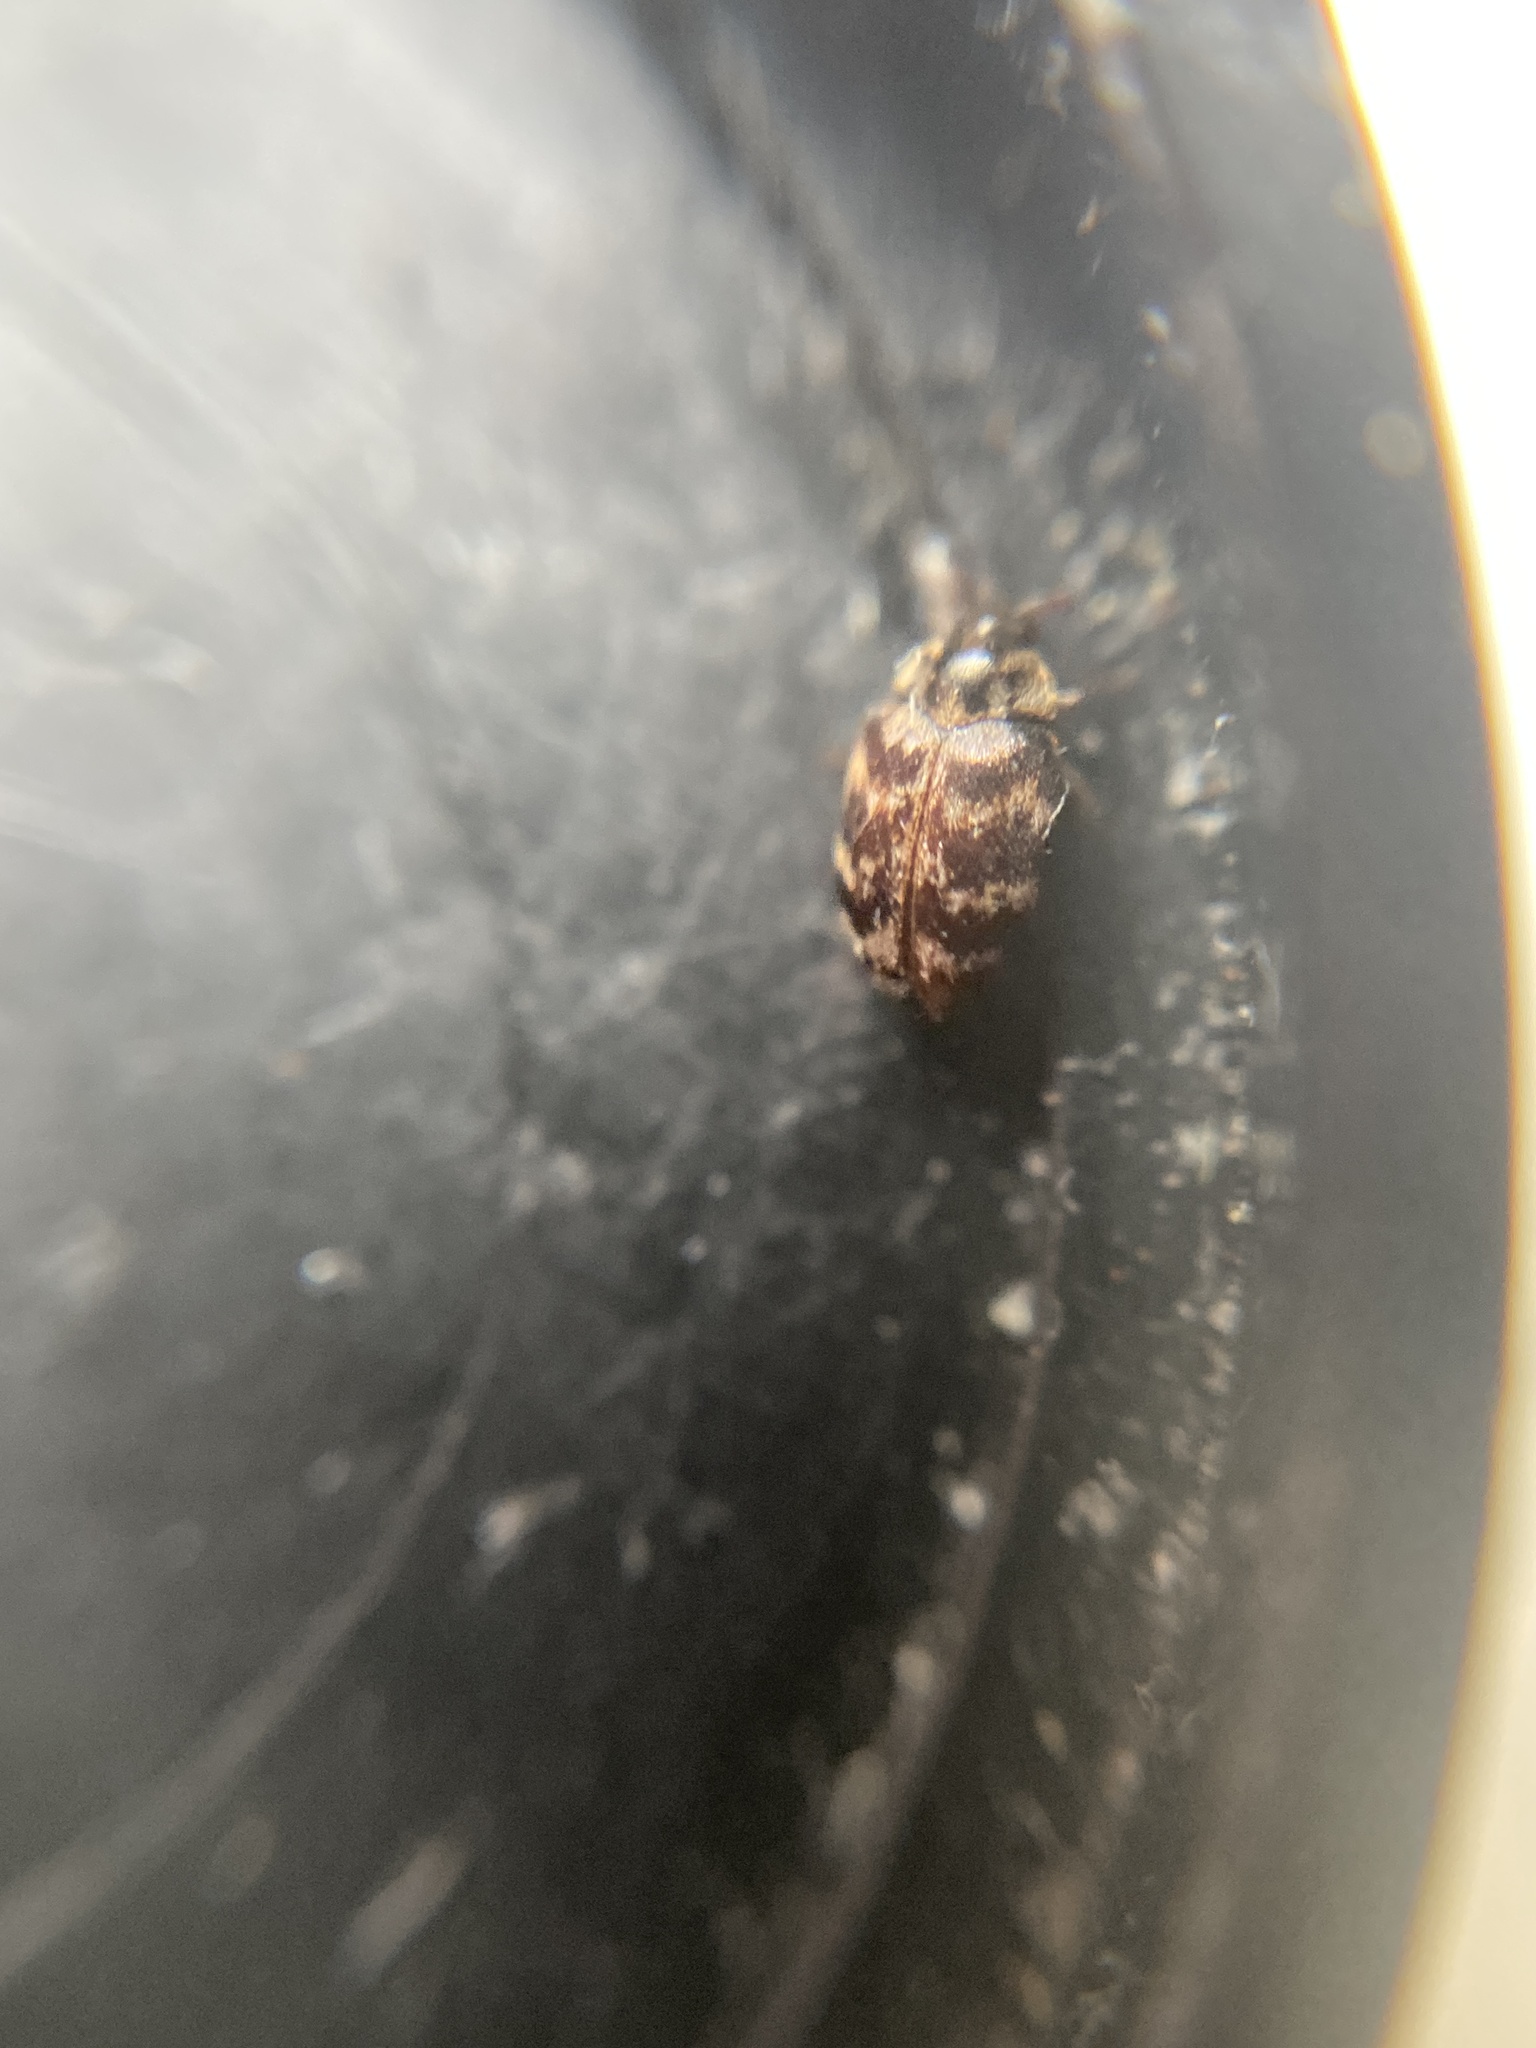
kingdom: Animalia
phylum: Arthropoda
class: Insecta
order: Coleoptera
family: Dermestidae
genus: Anthrenocerus
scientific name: Anthrenocerus australis
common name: Australian carpet beetle
